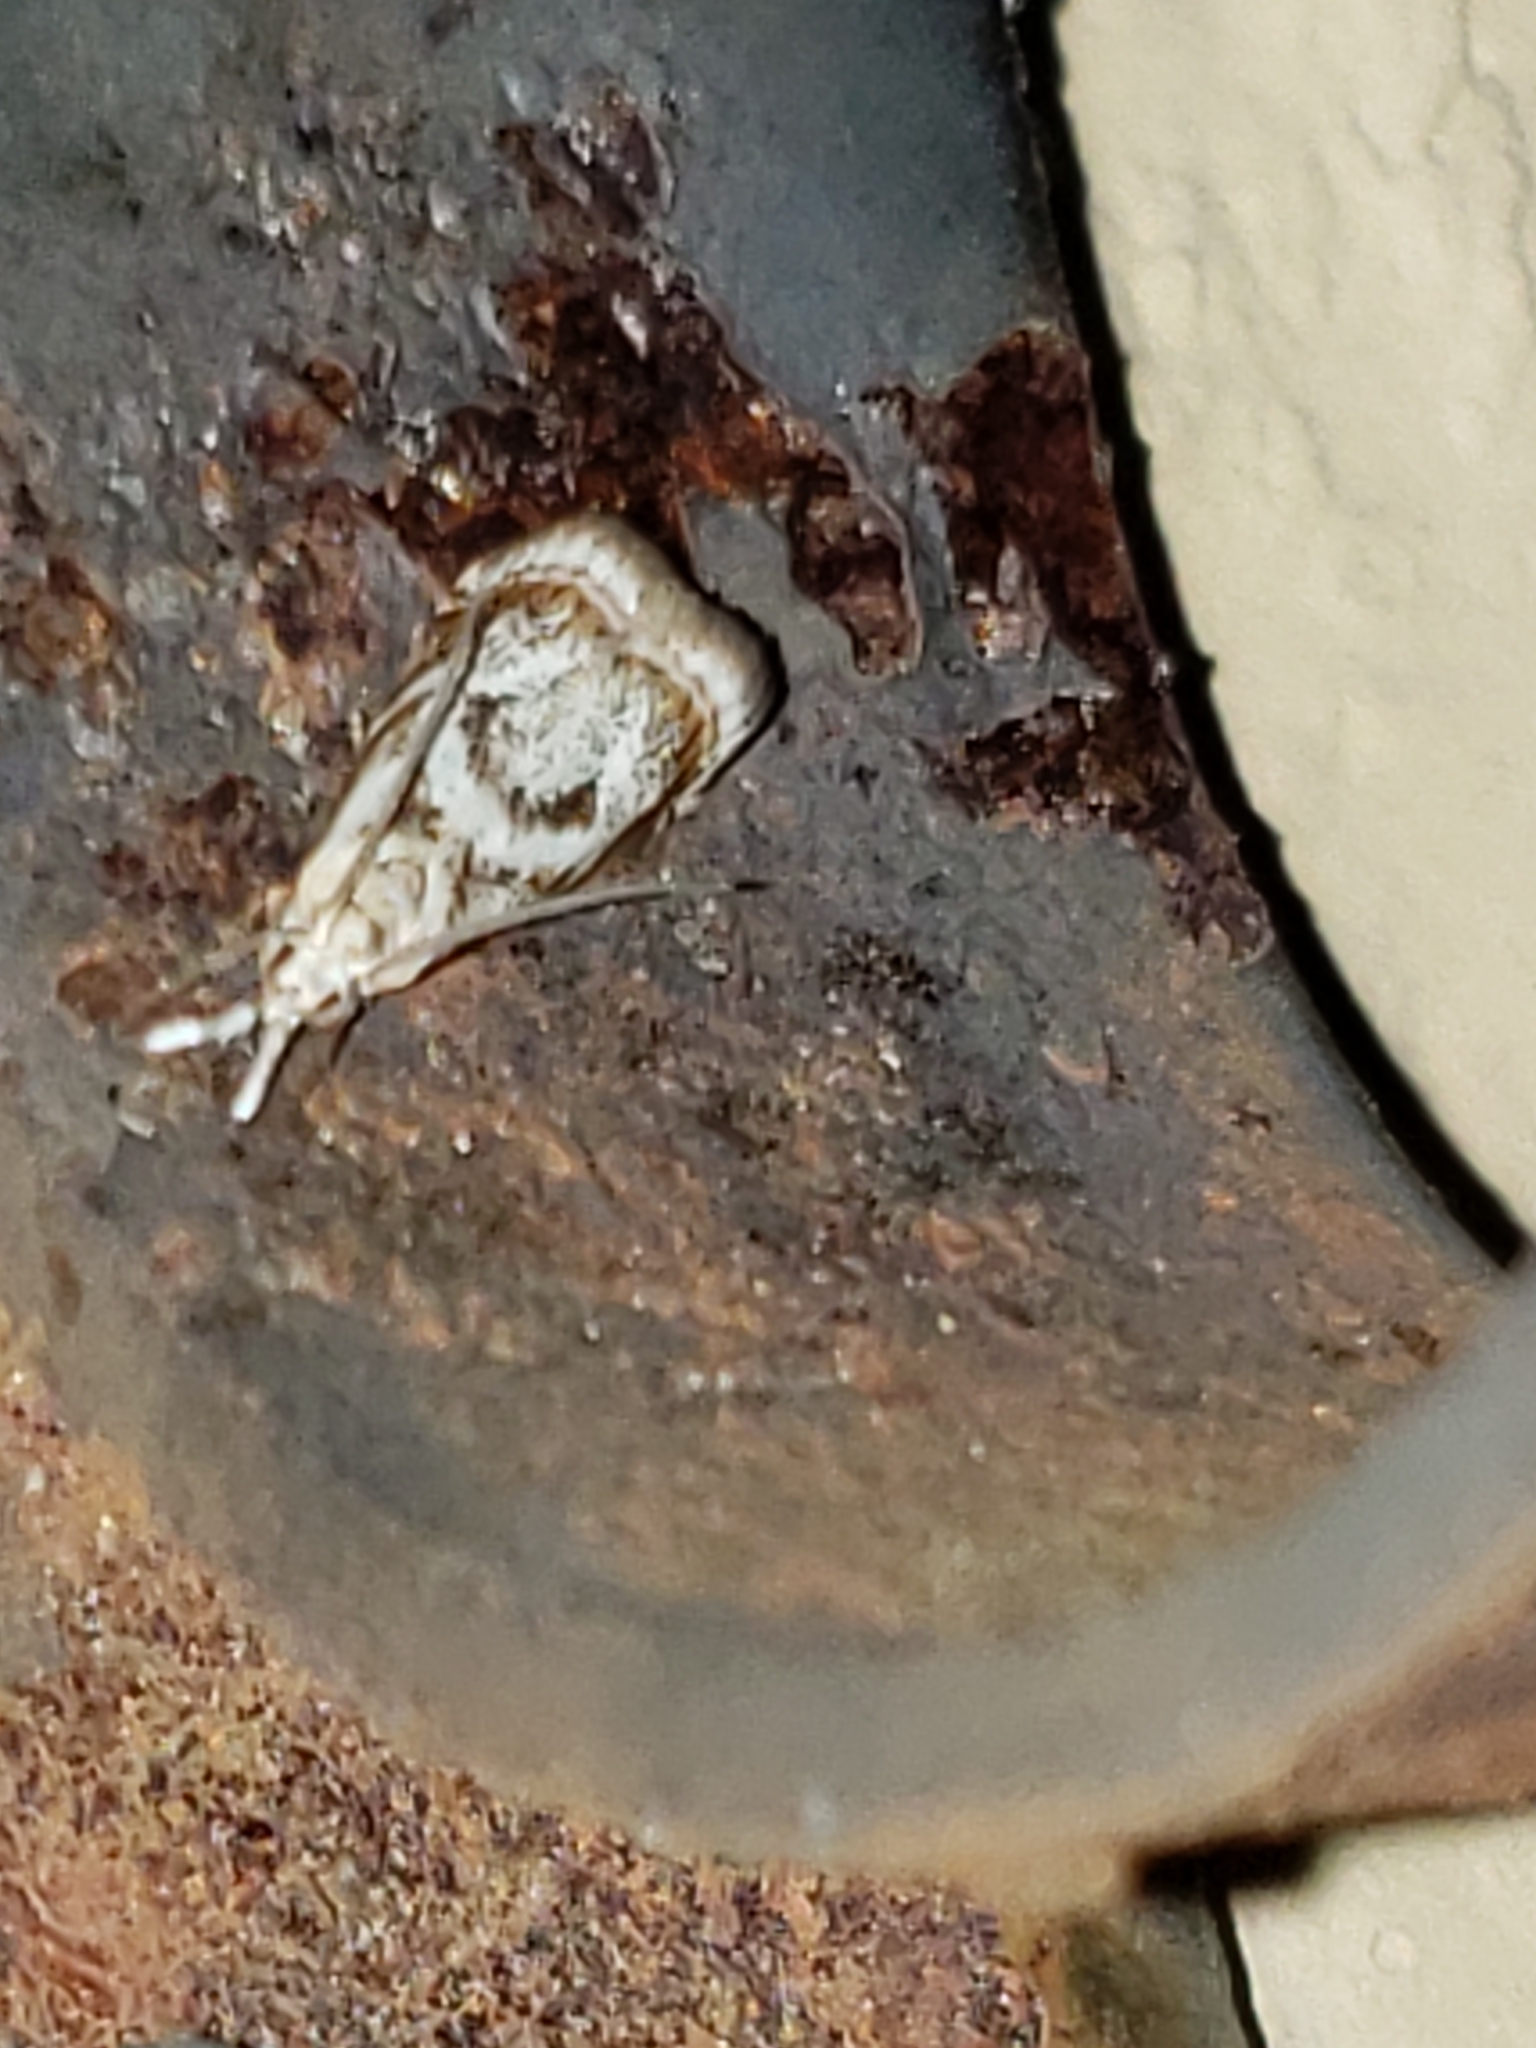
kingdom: Animalia
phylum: Arthropoda
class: Insecta
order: Lepidoptera
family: Crambidae
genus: Microcrambus
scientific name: Microcrambus elegans
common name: Elegant grass-veneer
